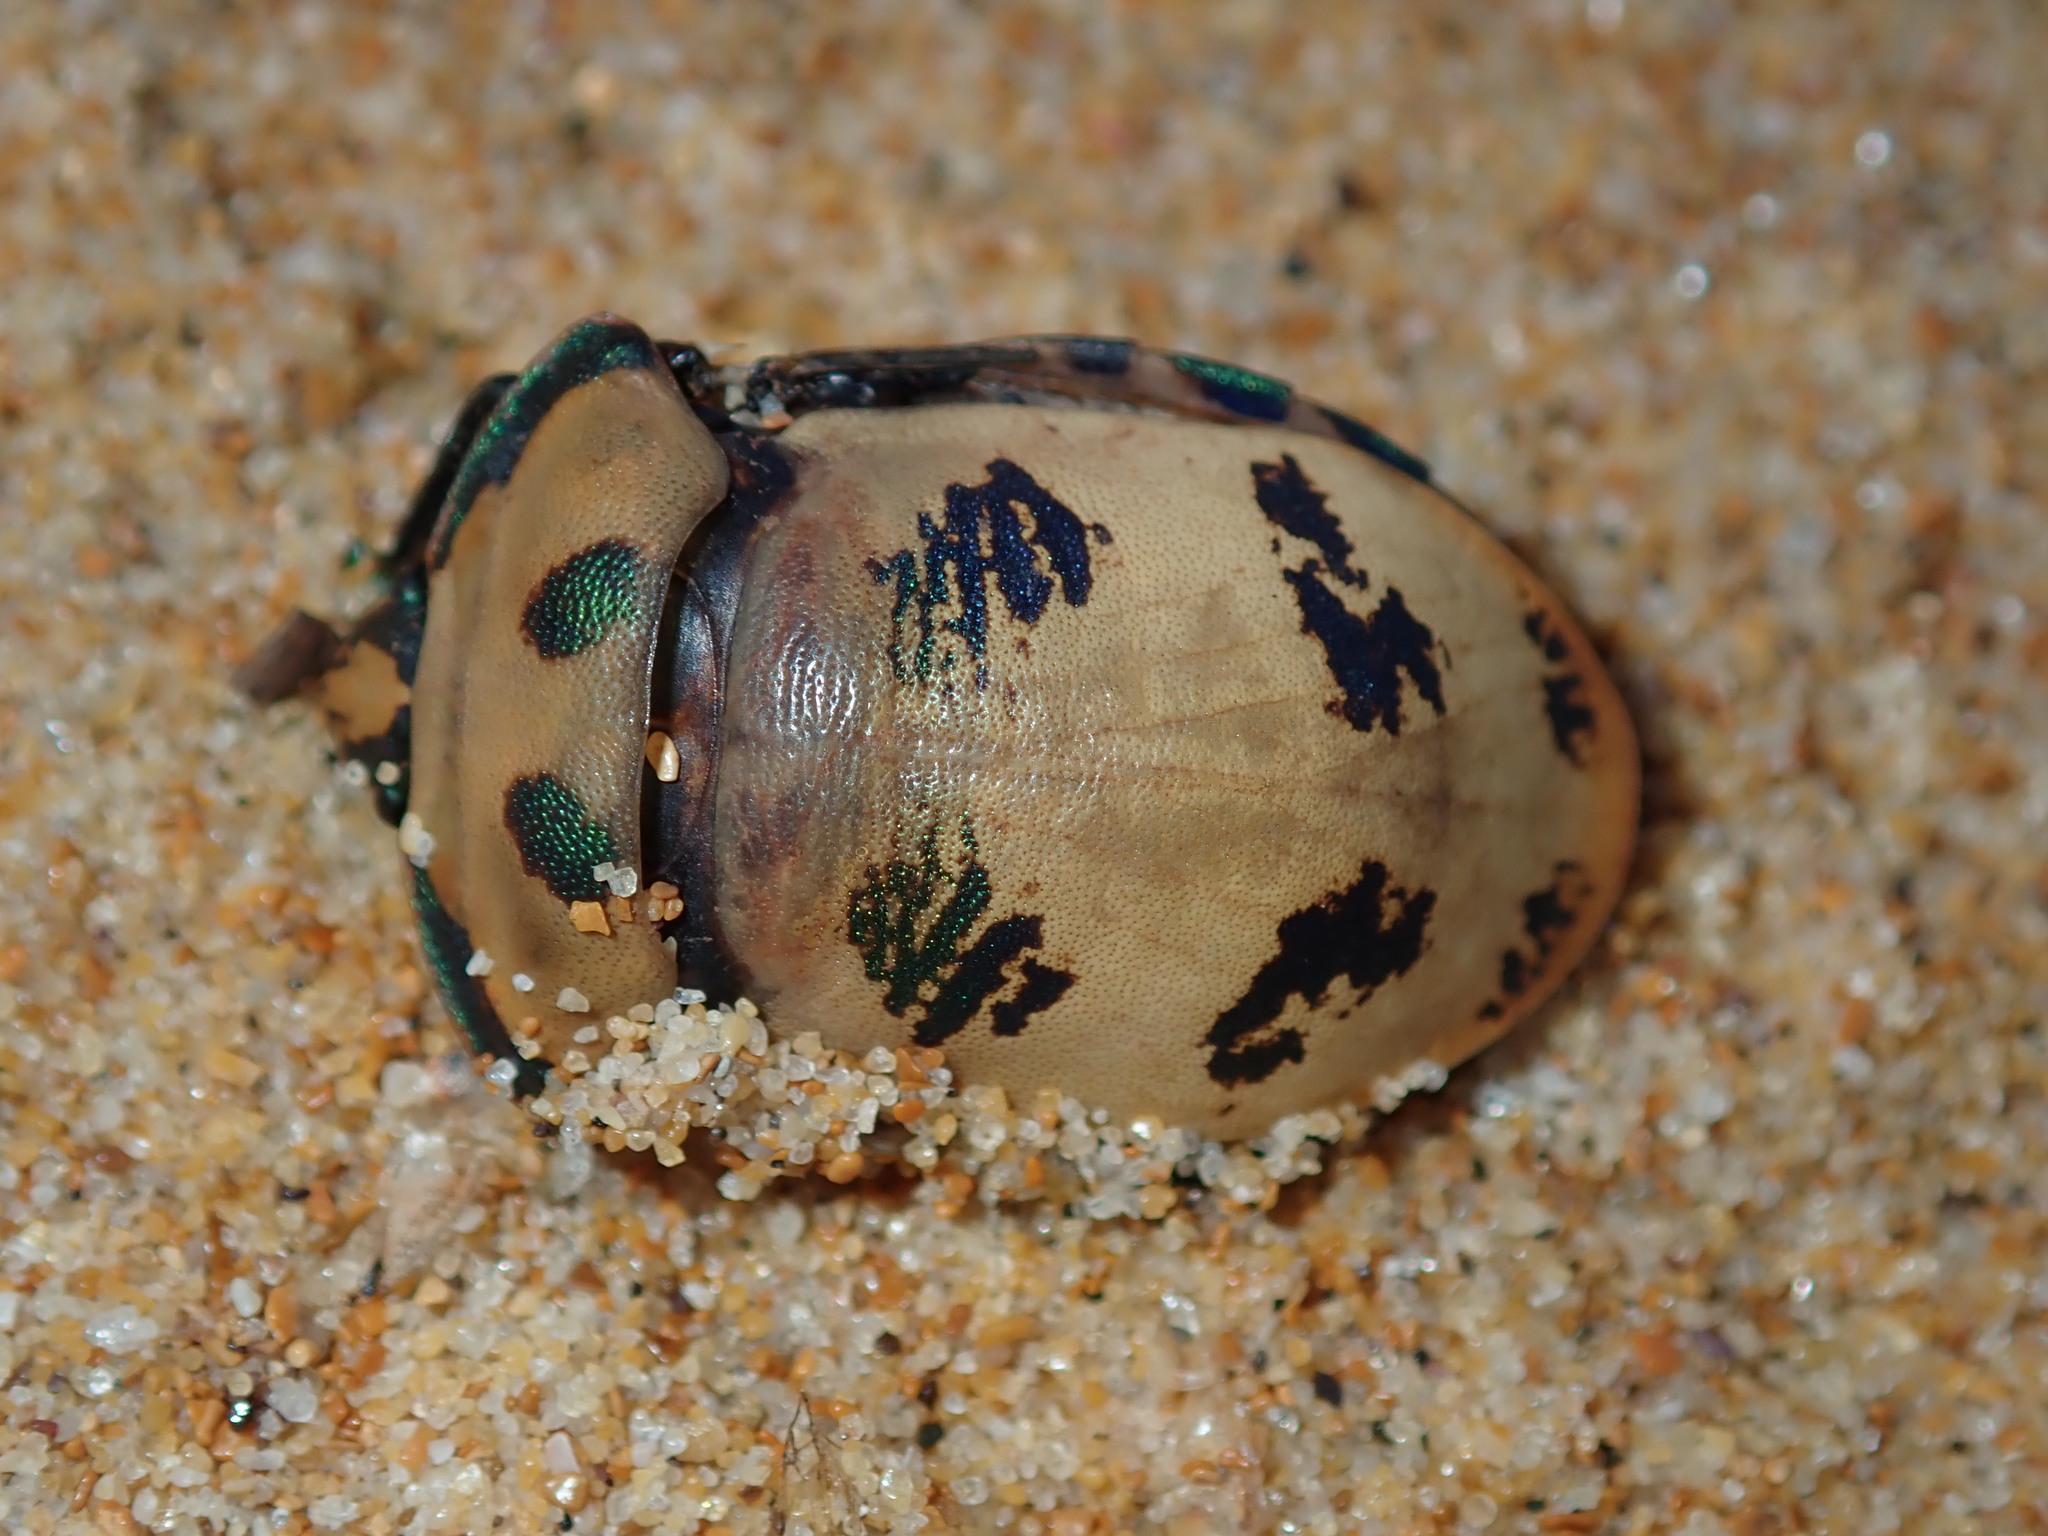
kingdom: Animalia
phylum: Arthropoda
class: Insecta
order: Hemiptera
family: Scutelleridae
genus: Tectocoris
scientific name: Tectocoris diophthalmus
